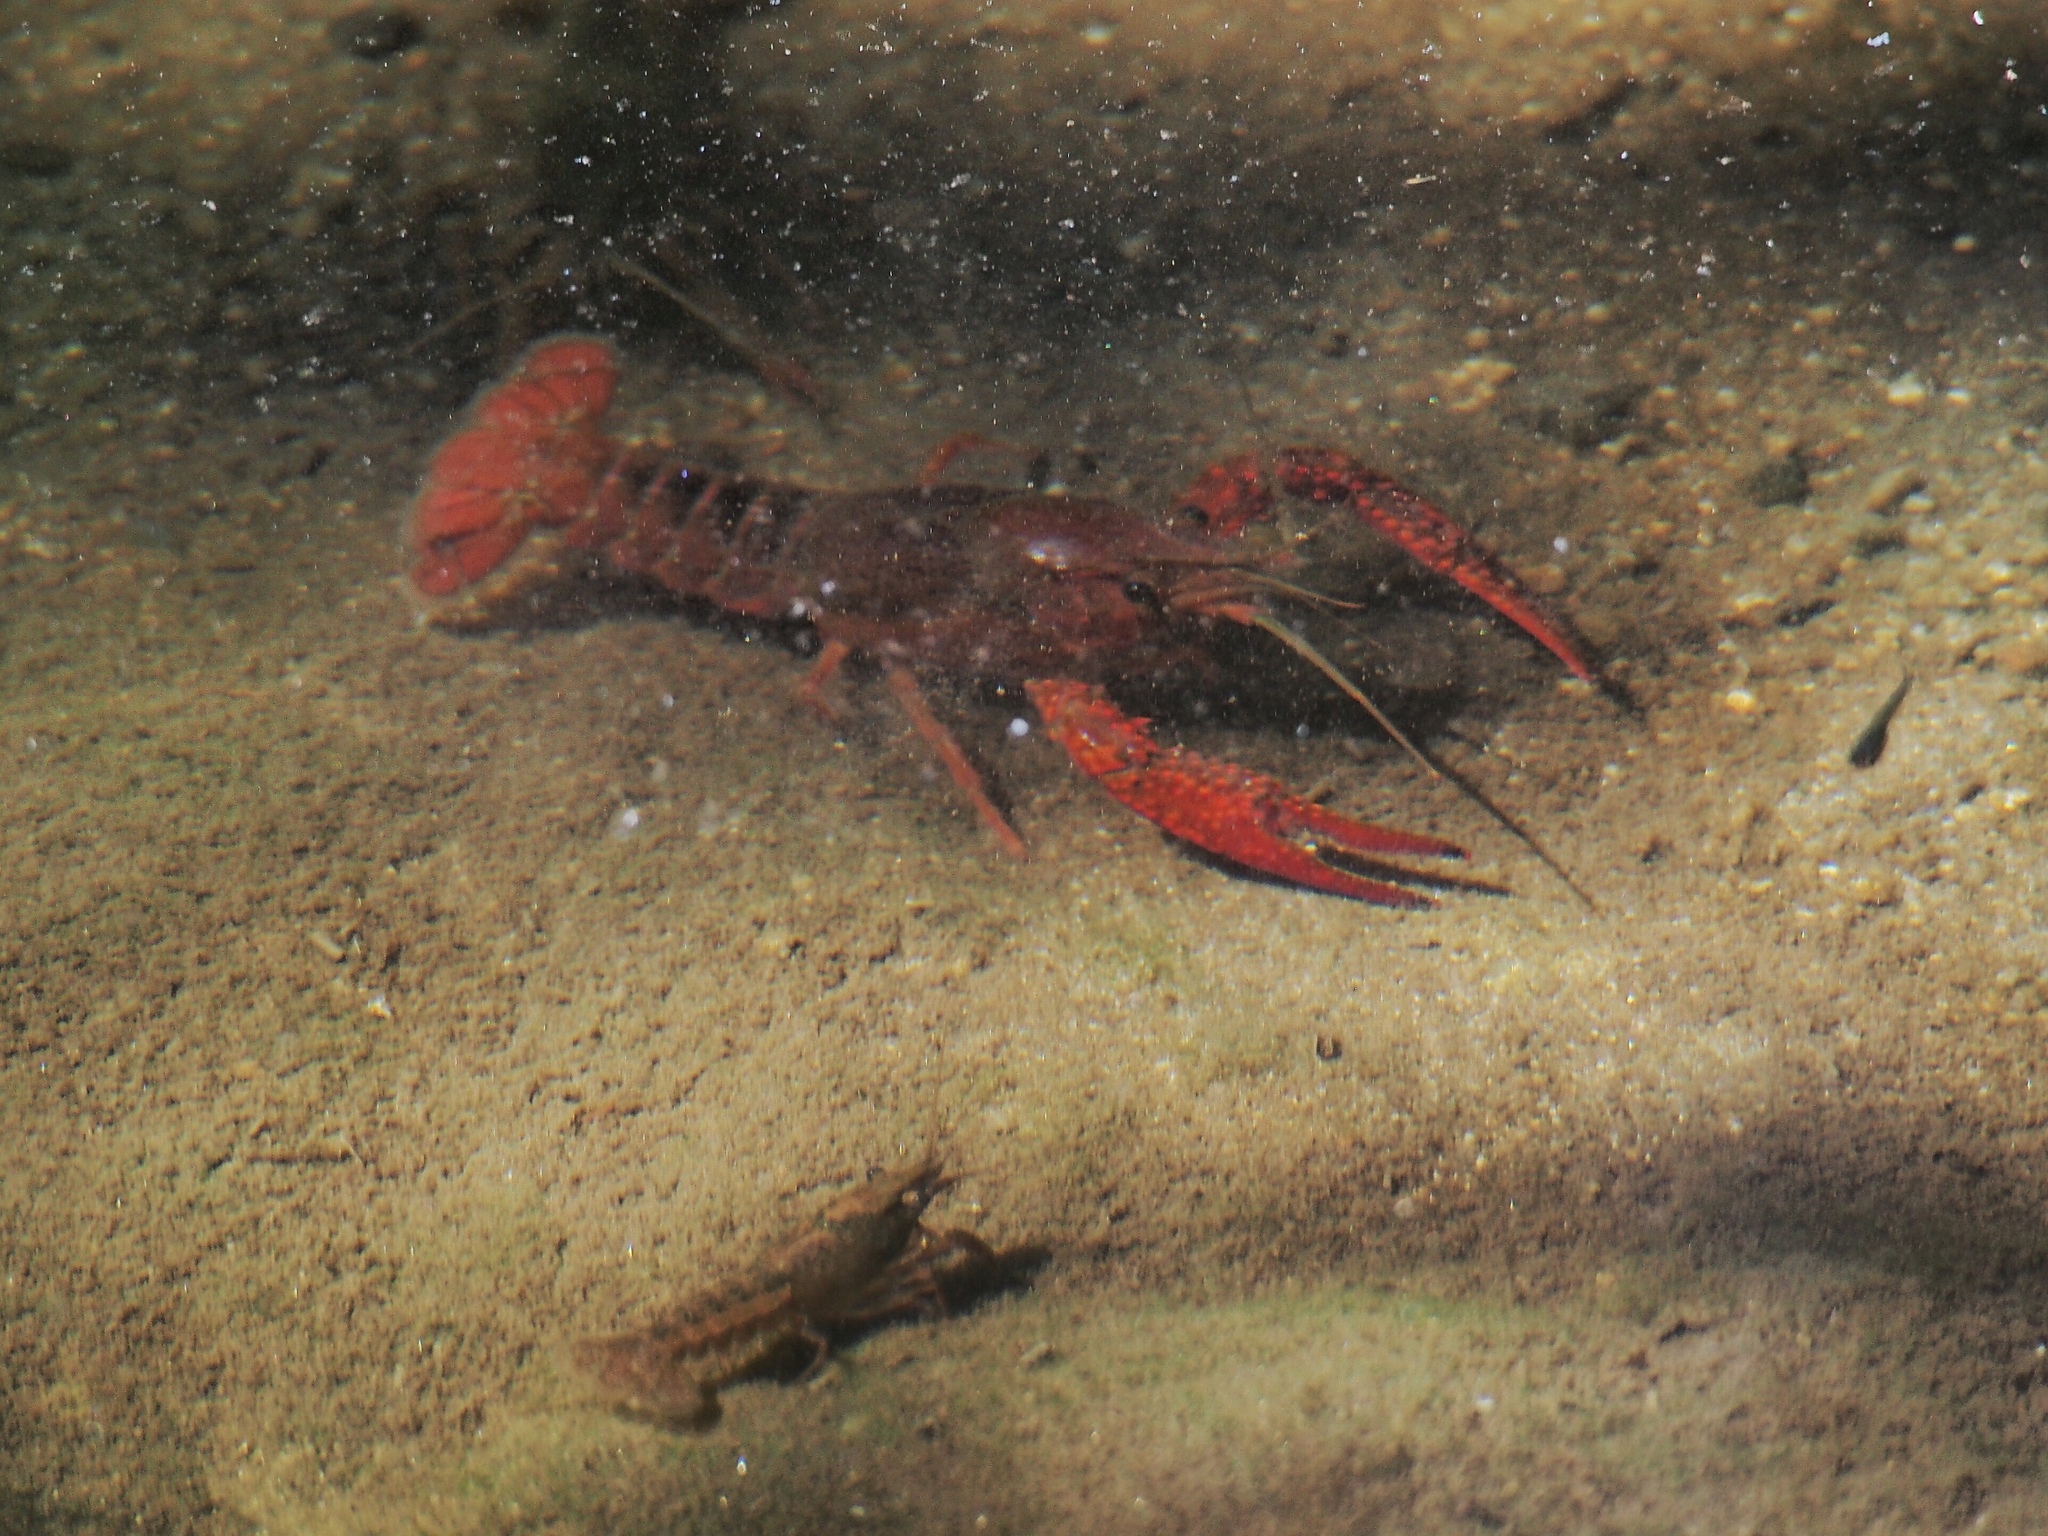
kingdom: Animalia
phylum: Arthropoda
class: Malacostraca
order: Decapoda
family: Cambaridae
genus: Procambarus
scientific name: Procambarus clarkii
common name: Red swamp crayfish
